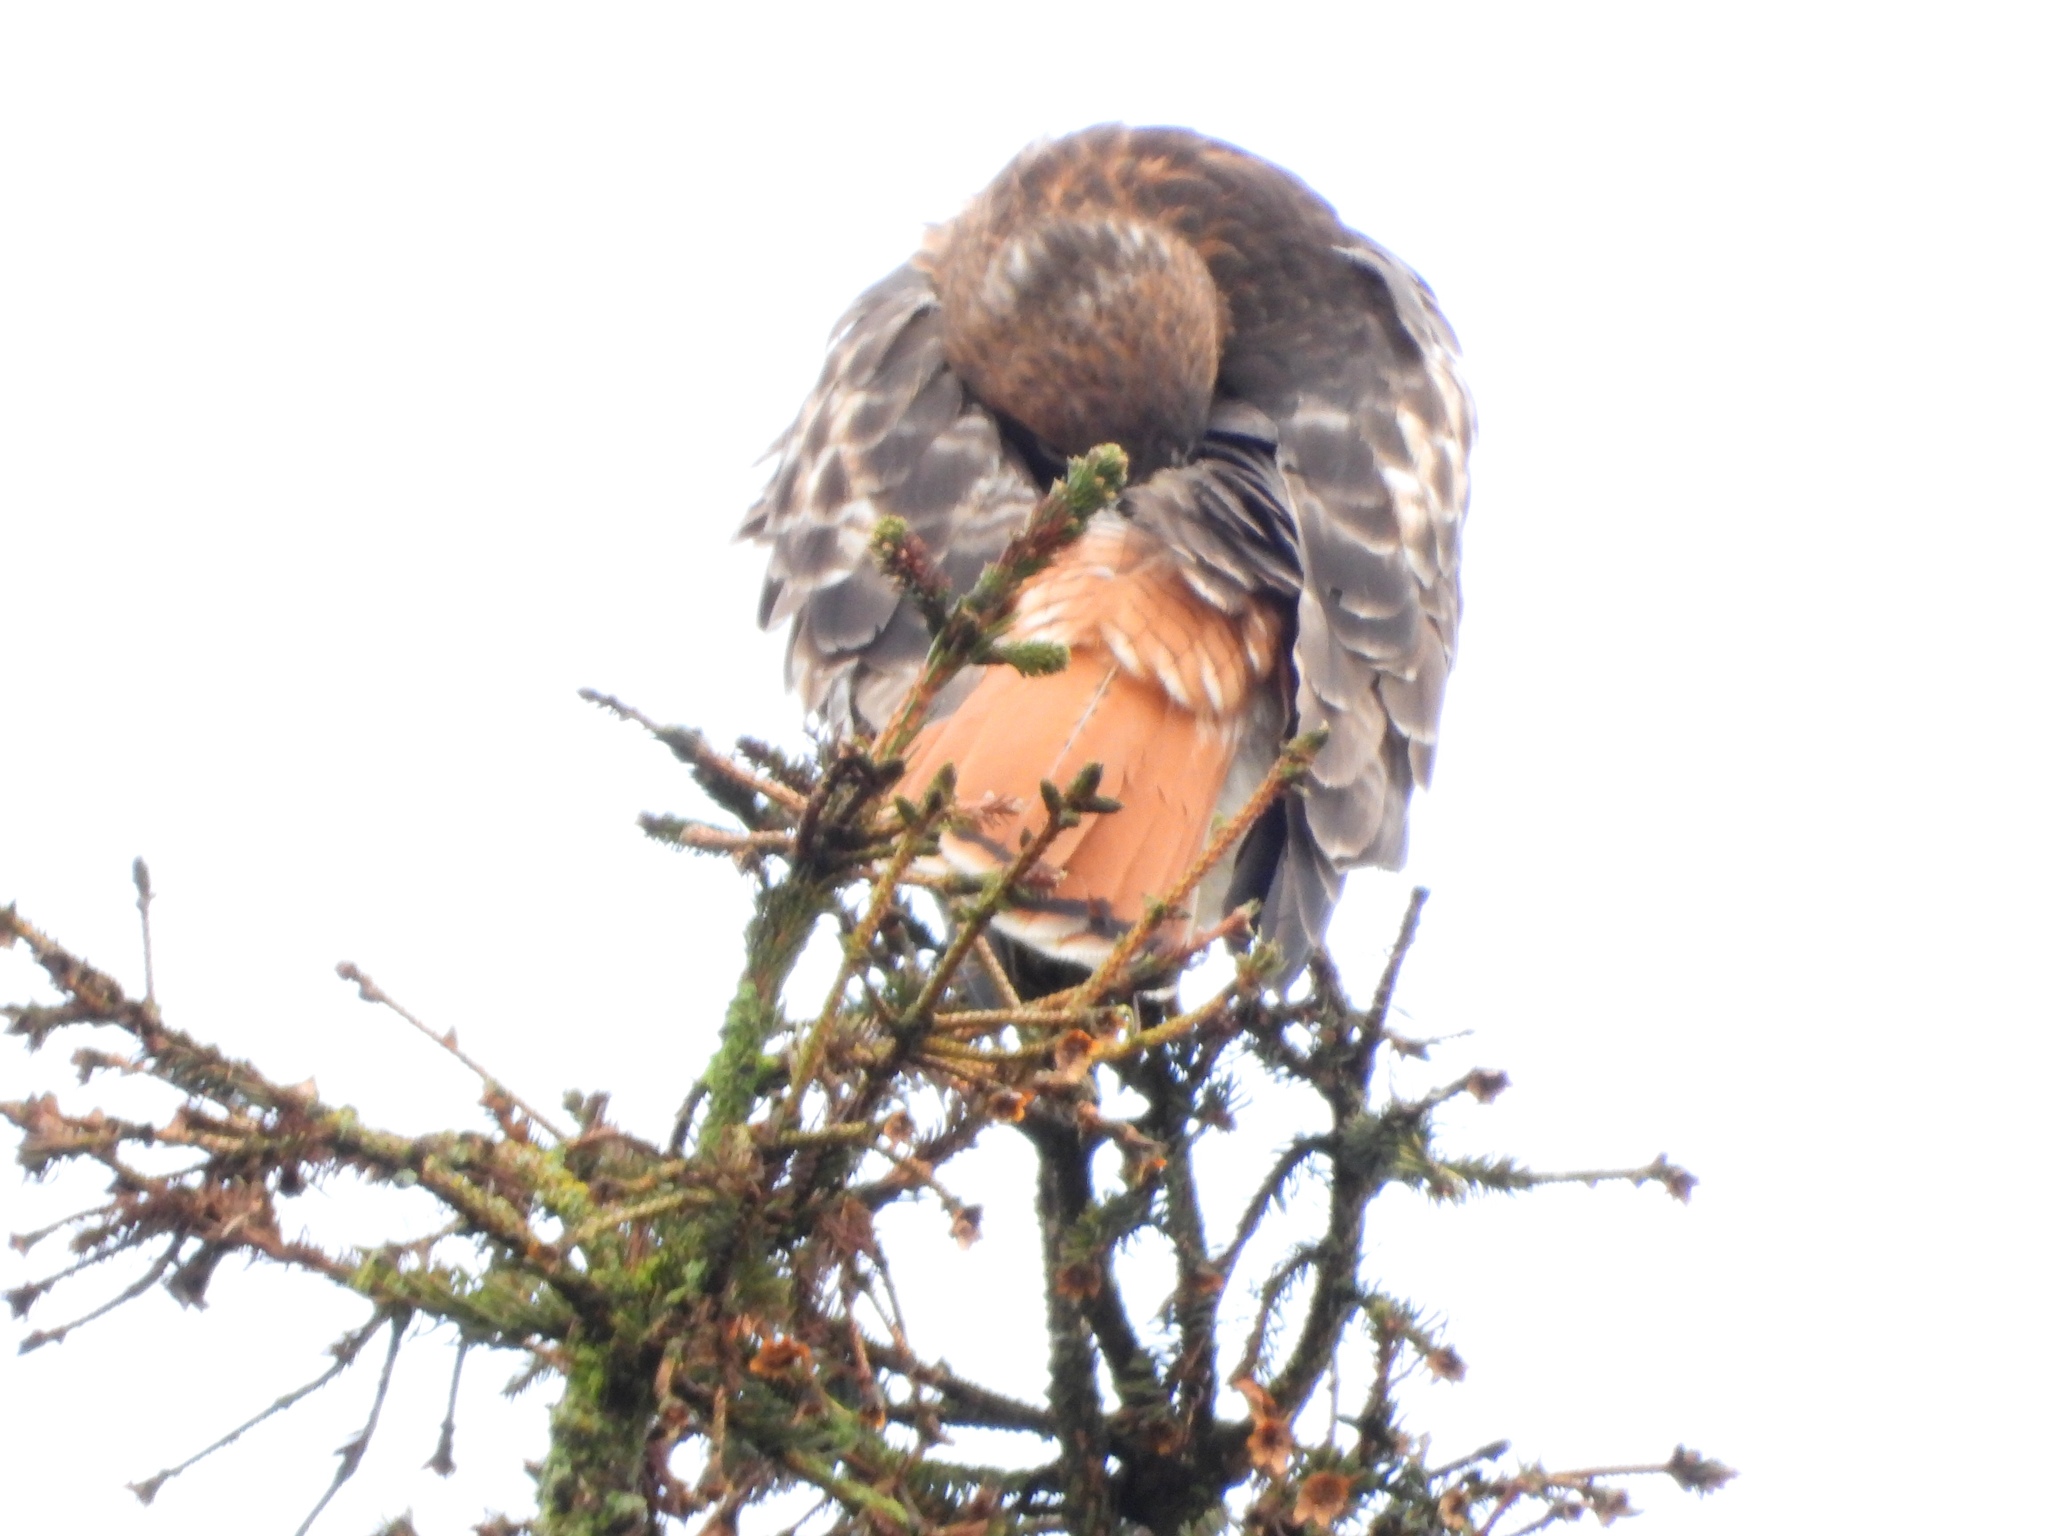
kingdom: Animalia
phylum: Chordata
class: Aves
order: Accipitriformes
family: Accipitridae
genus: Buteo
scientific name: Buteo jamaicensis
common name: Red-tailed hawk
